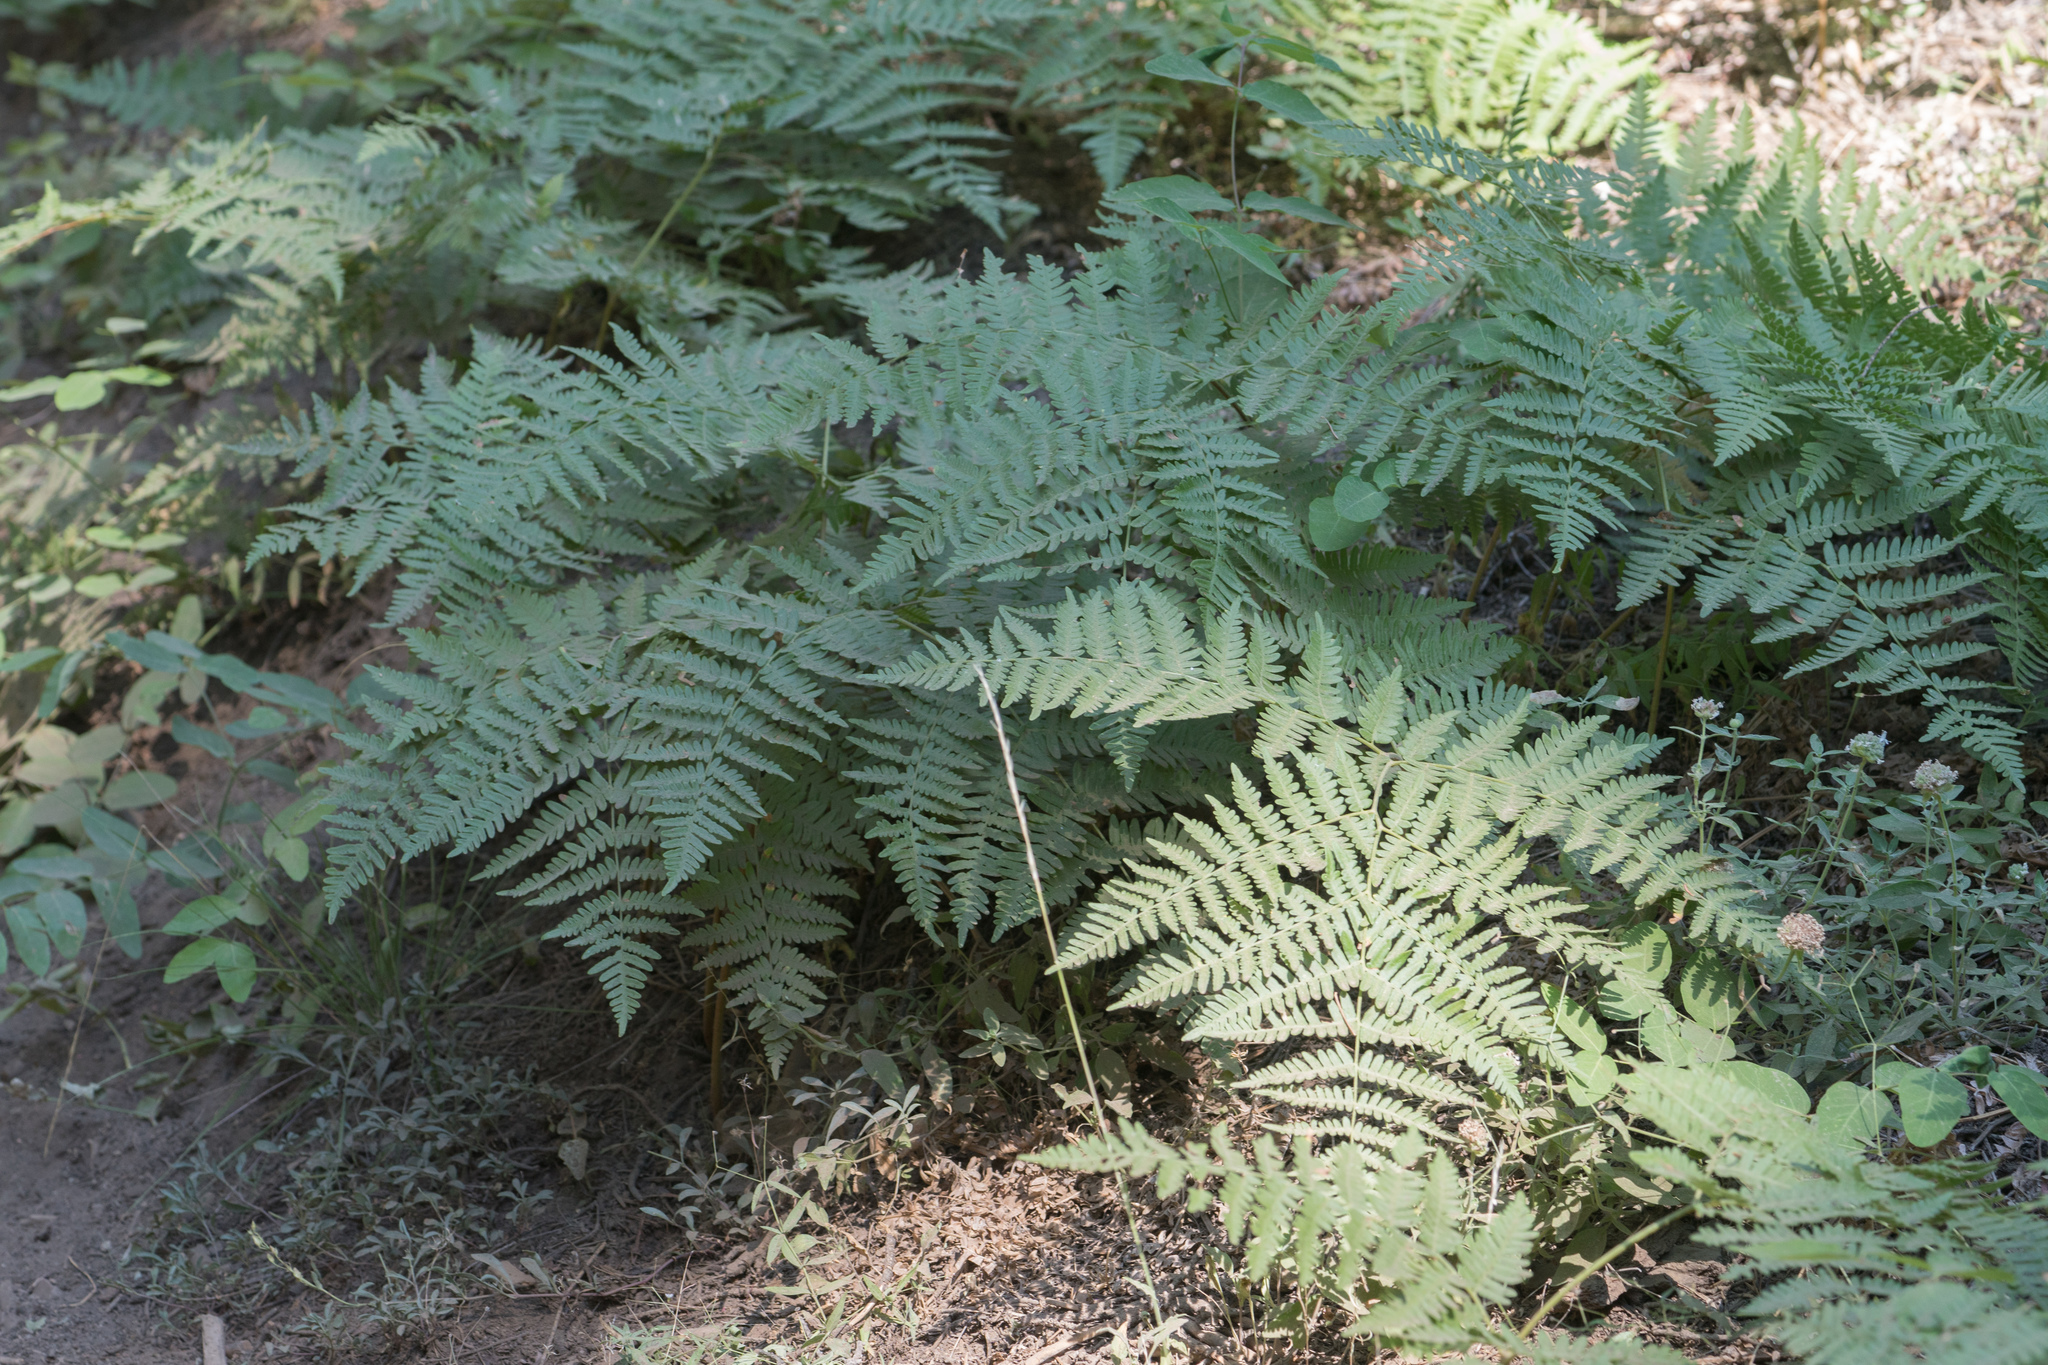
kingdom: Plantae
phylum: Tracheophyta
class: Polypodiopsida
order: Polypodiales
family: Dennstaedtiaceae
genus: Pteridium
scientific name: Pteridium aquilinum
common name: Bracken
